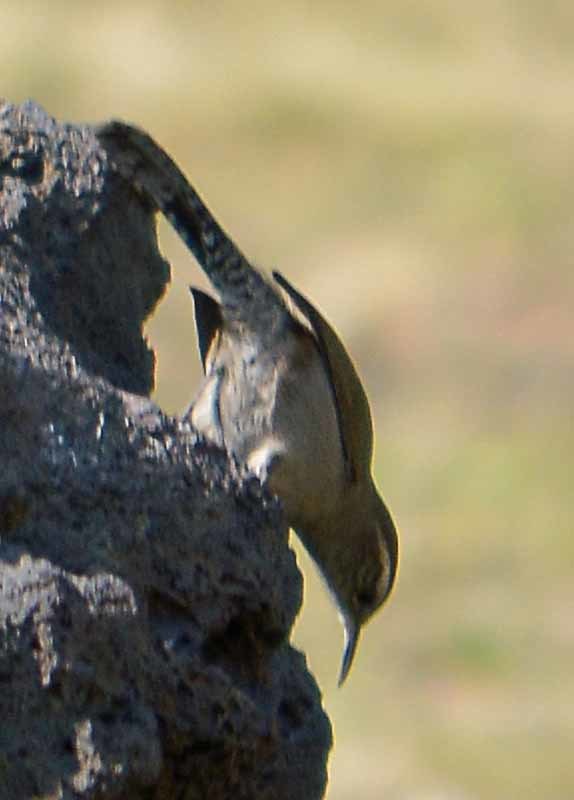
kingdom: Animalia
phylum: Chordata
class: Aves
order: Passeriformes
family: Troglodytidae
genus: Thryomanes
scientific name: Thryomanes bewickii
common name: Bewick's wren
